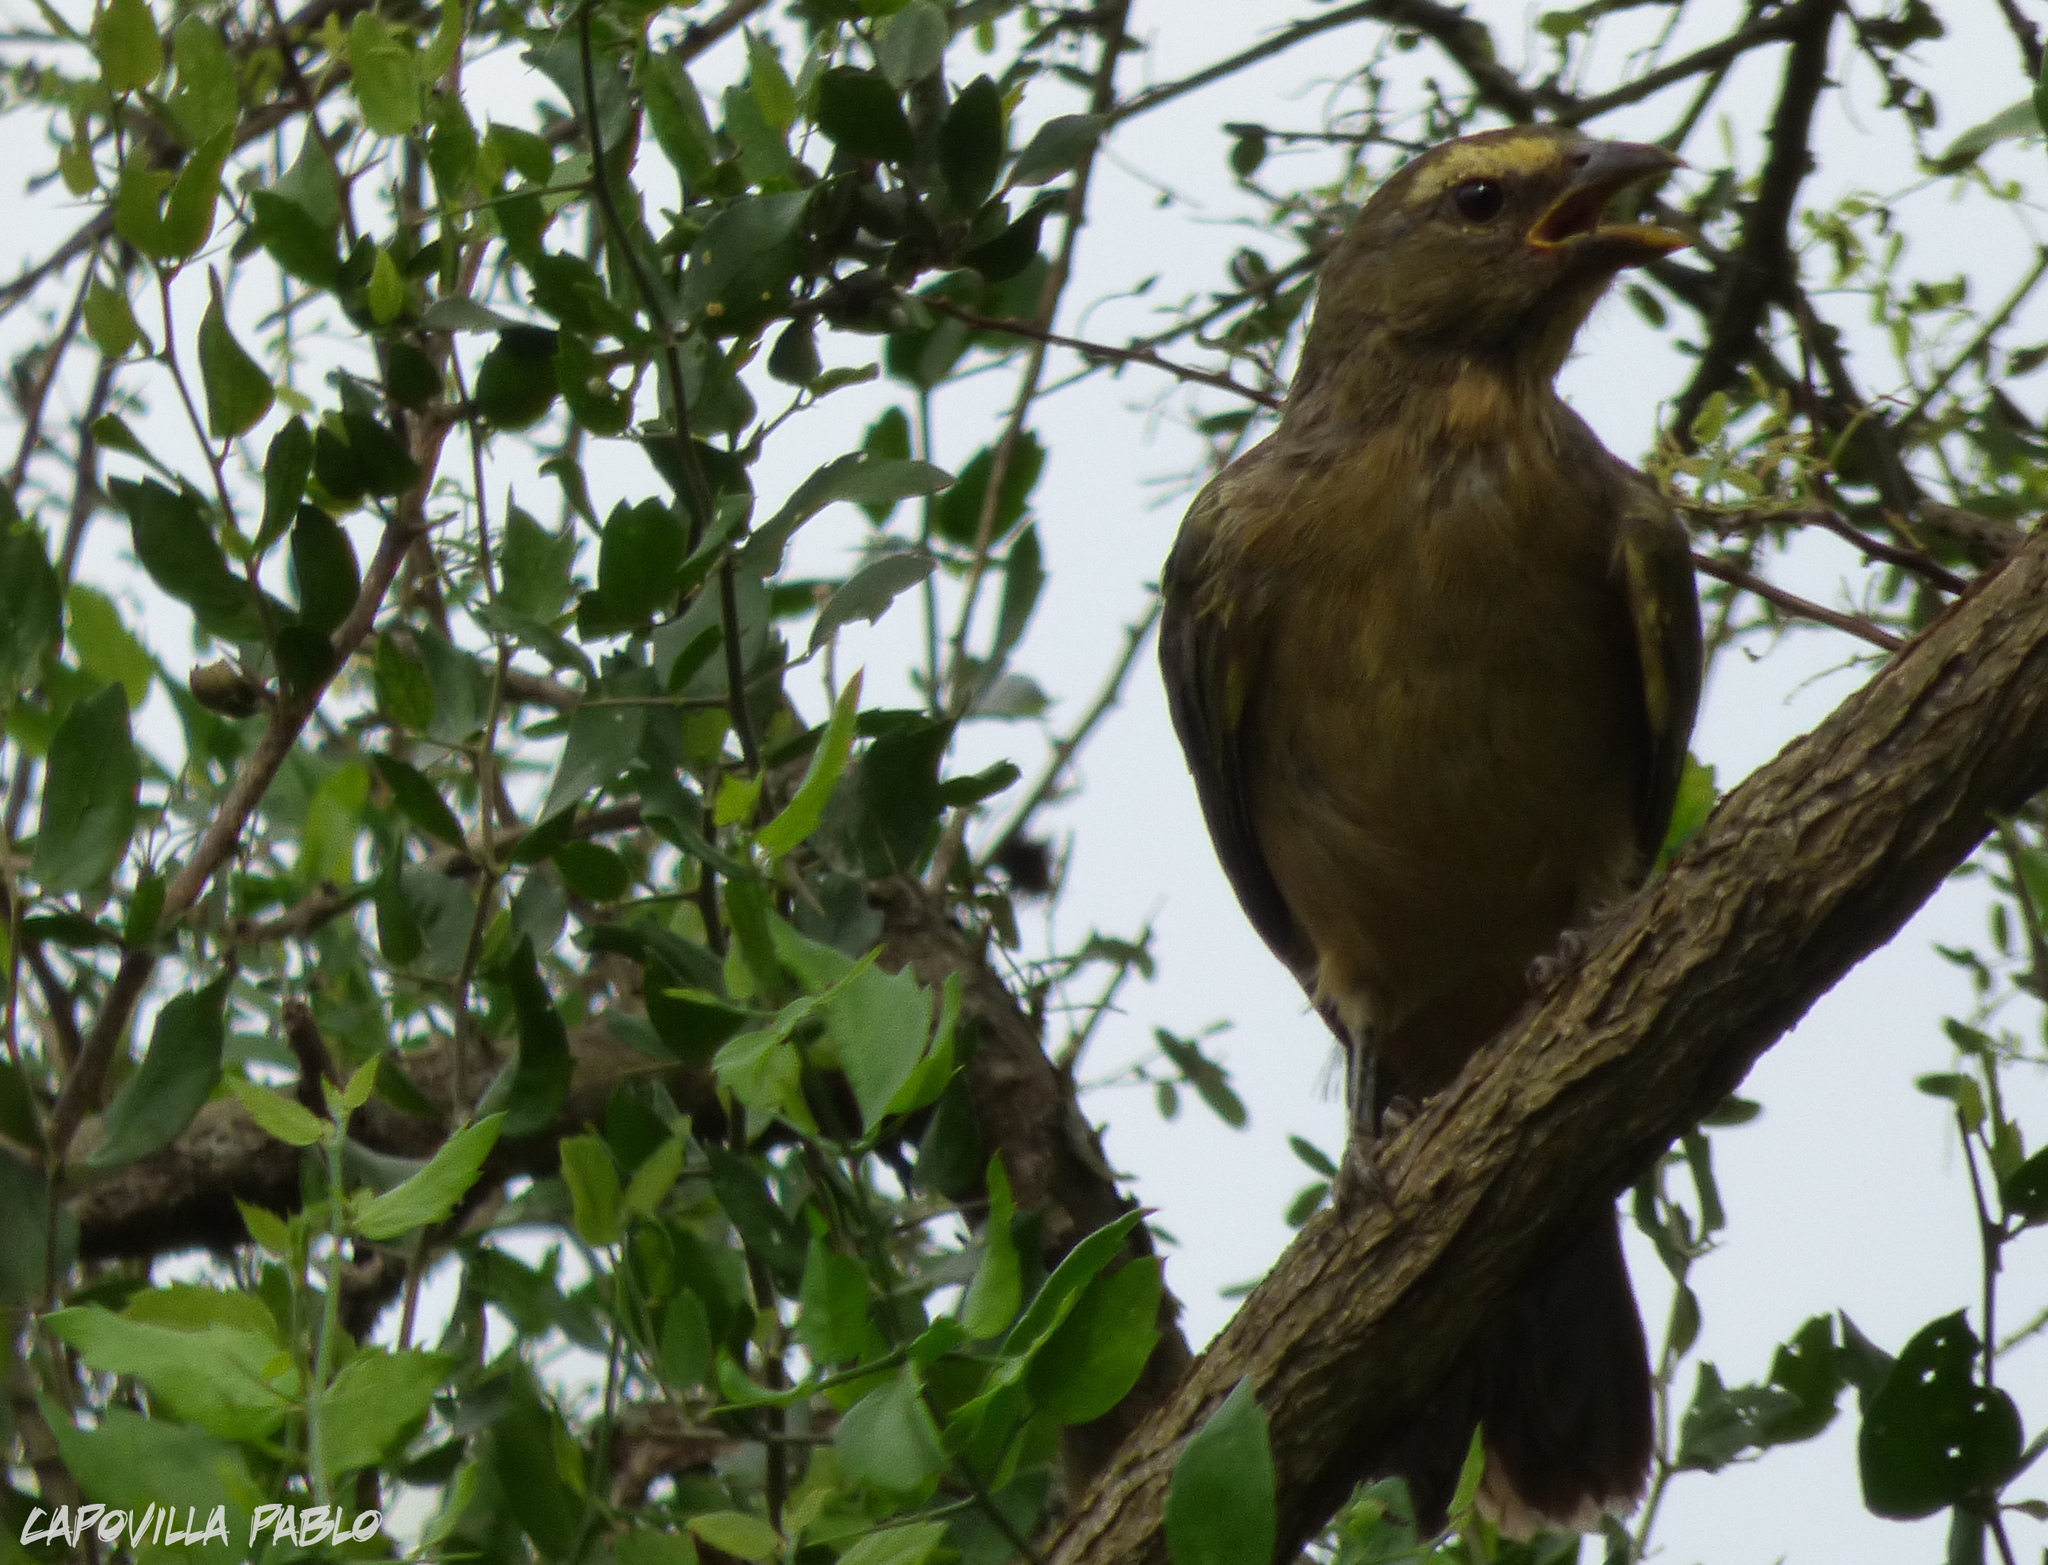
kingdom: Animalia
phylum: Chordata
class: Aves
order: Passeriformes
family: Thraupidae
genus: Saltator
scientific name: Saltator coerulescens
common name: Grayish saltator
